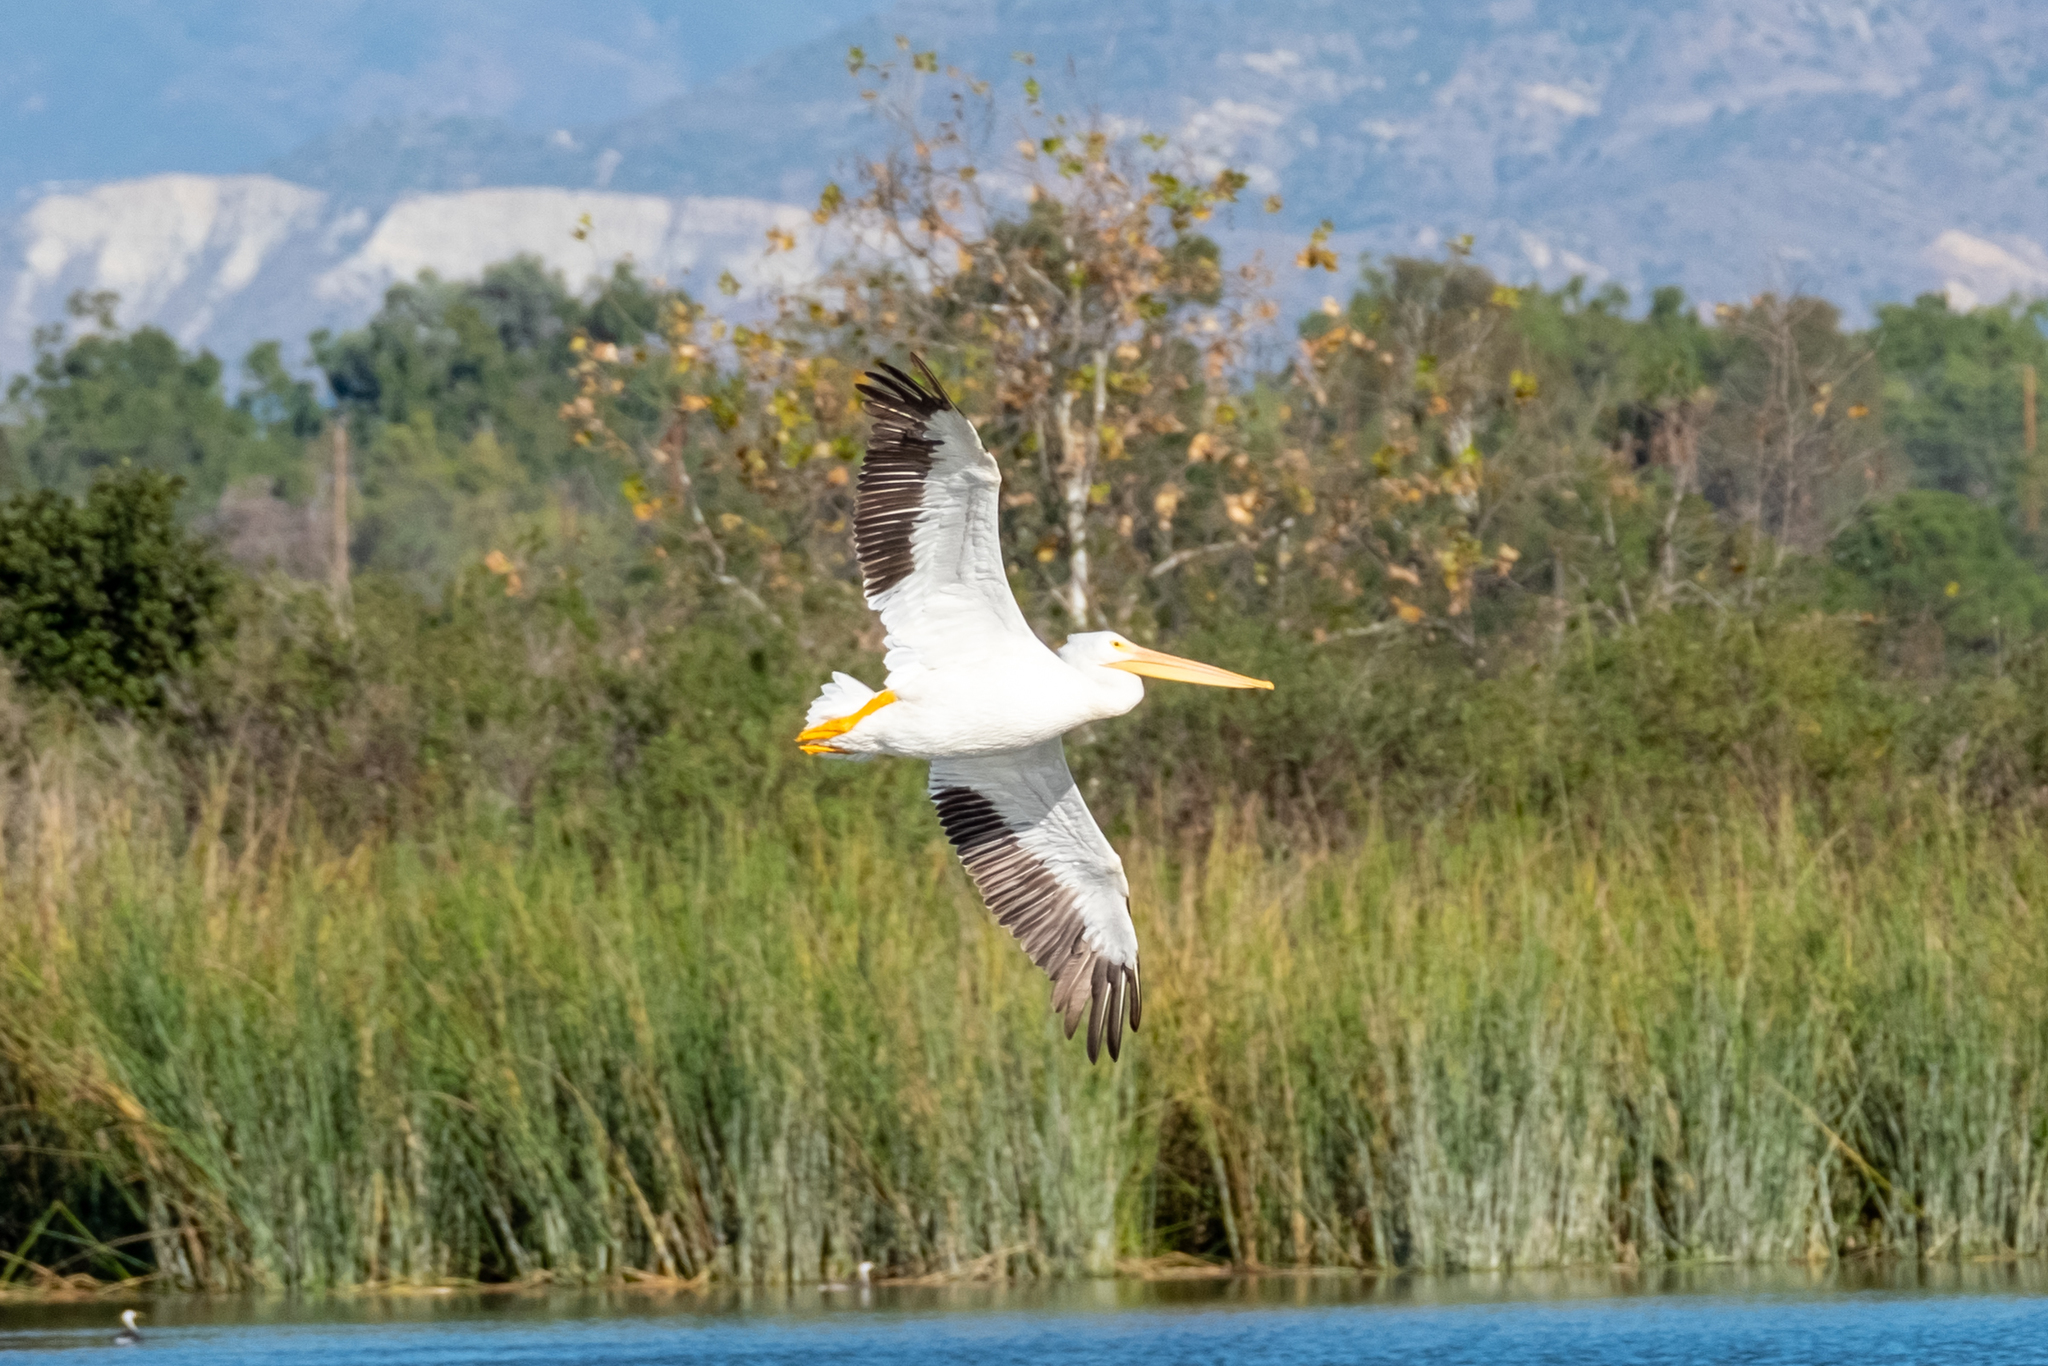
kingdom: Animalia
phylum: Chordata
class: Aves
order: Pelecaniformes
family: Pelecanidae
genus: Pelecanus
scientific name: Pelecanus erythrorhynchos
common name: American white pelican
